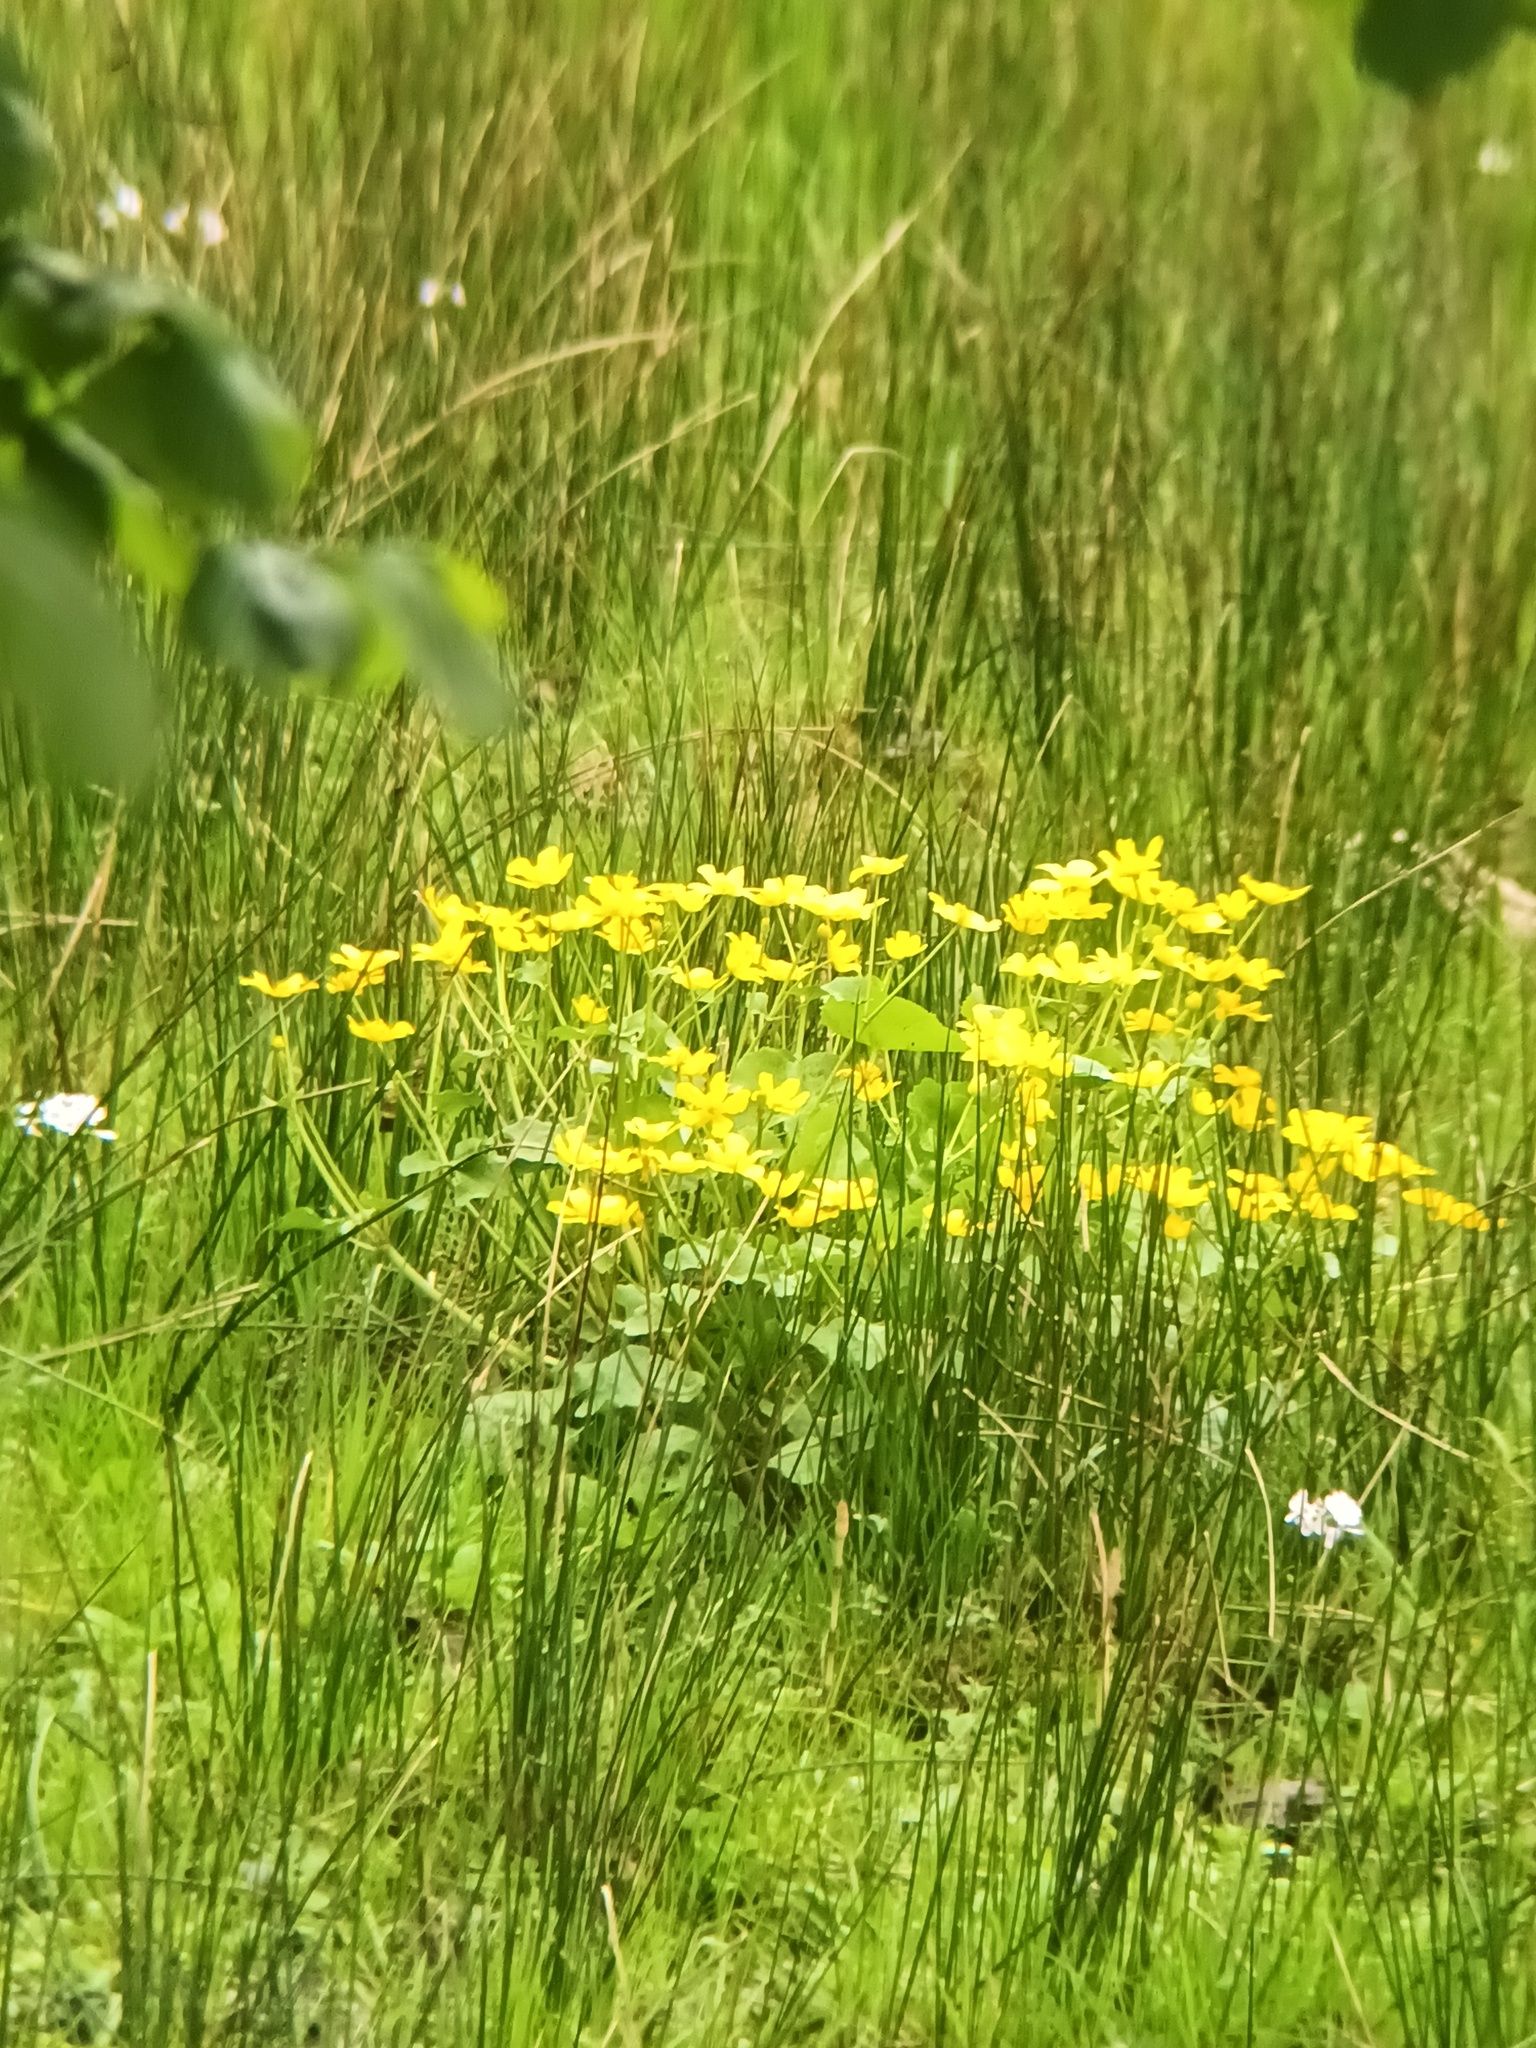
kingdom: Plantae
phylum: Tracheophyta
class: Magnoliopsida
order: Ranunculales
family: Ranunculaceae
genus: Caltha
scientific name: Caltha palustris
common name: Marsh marigold
